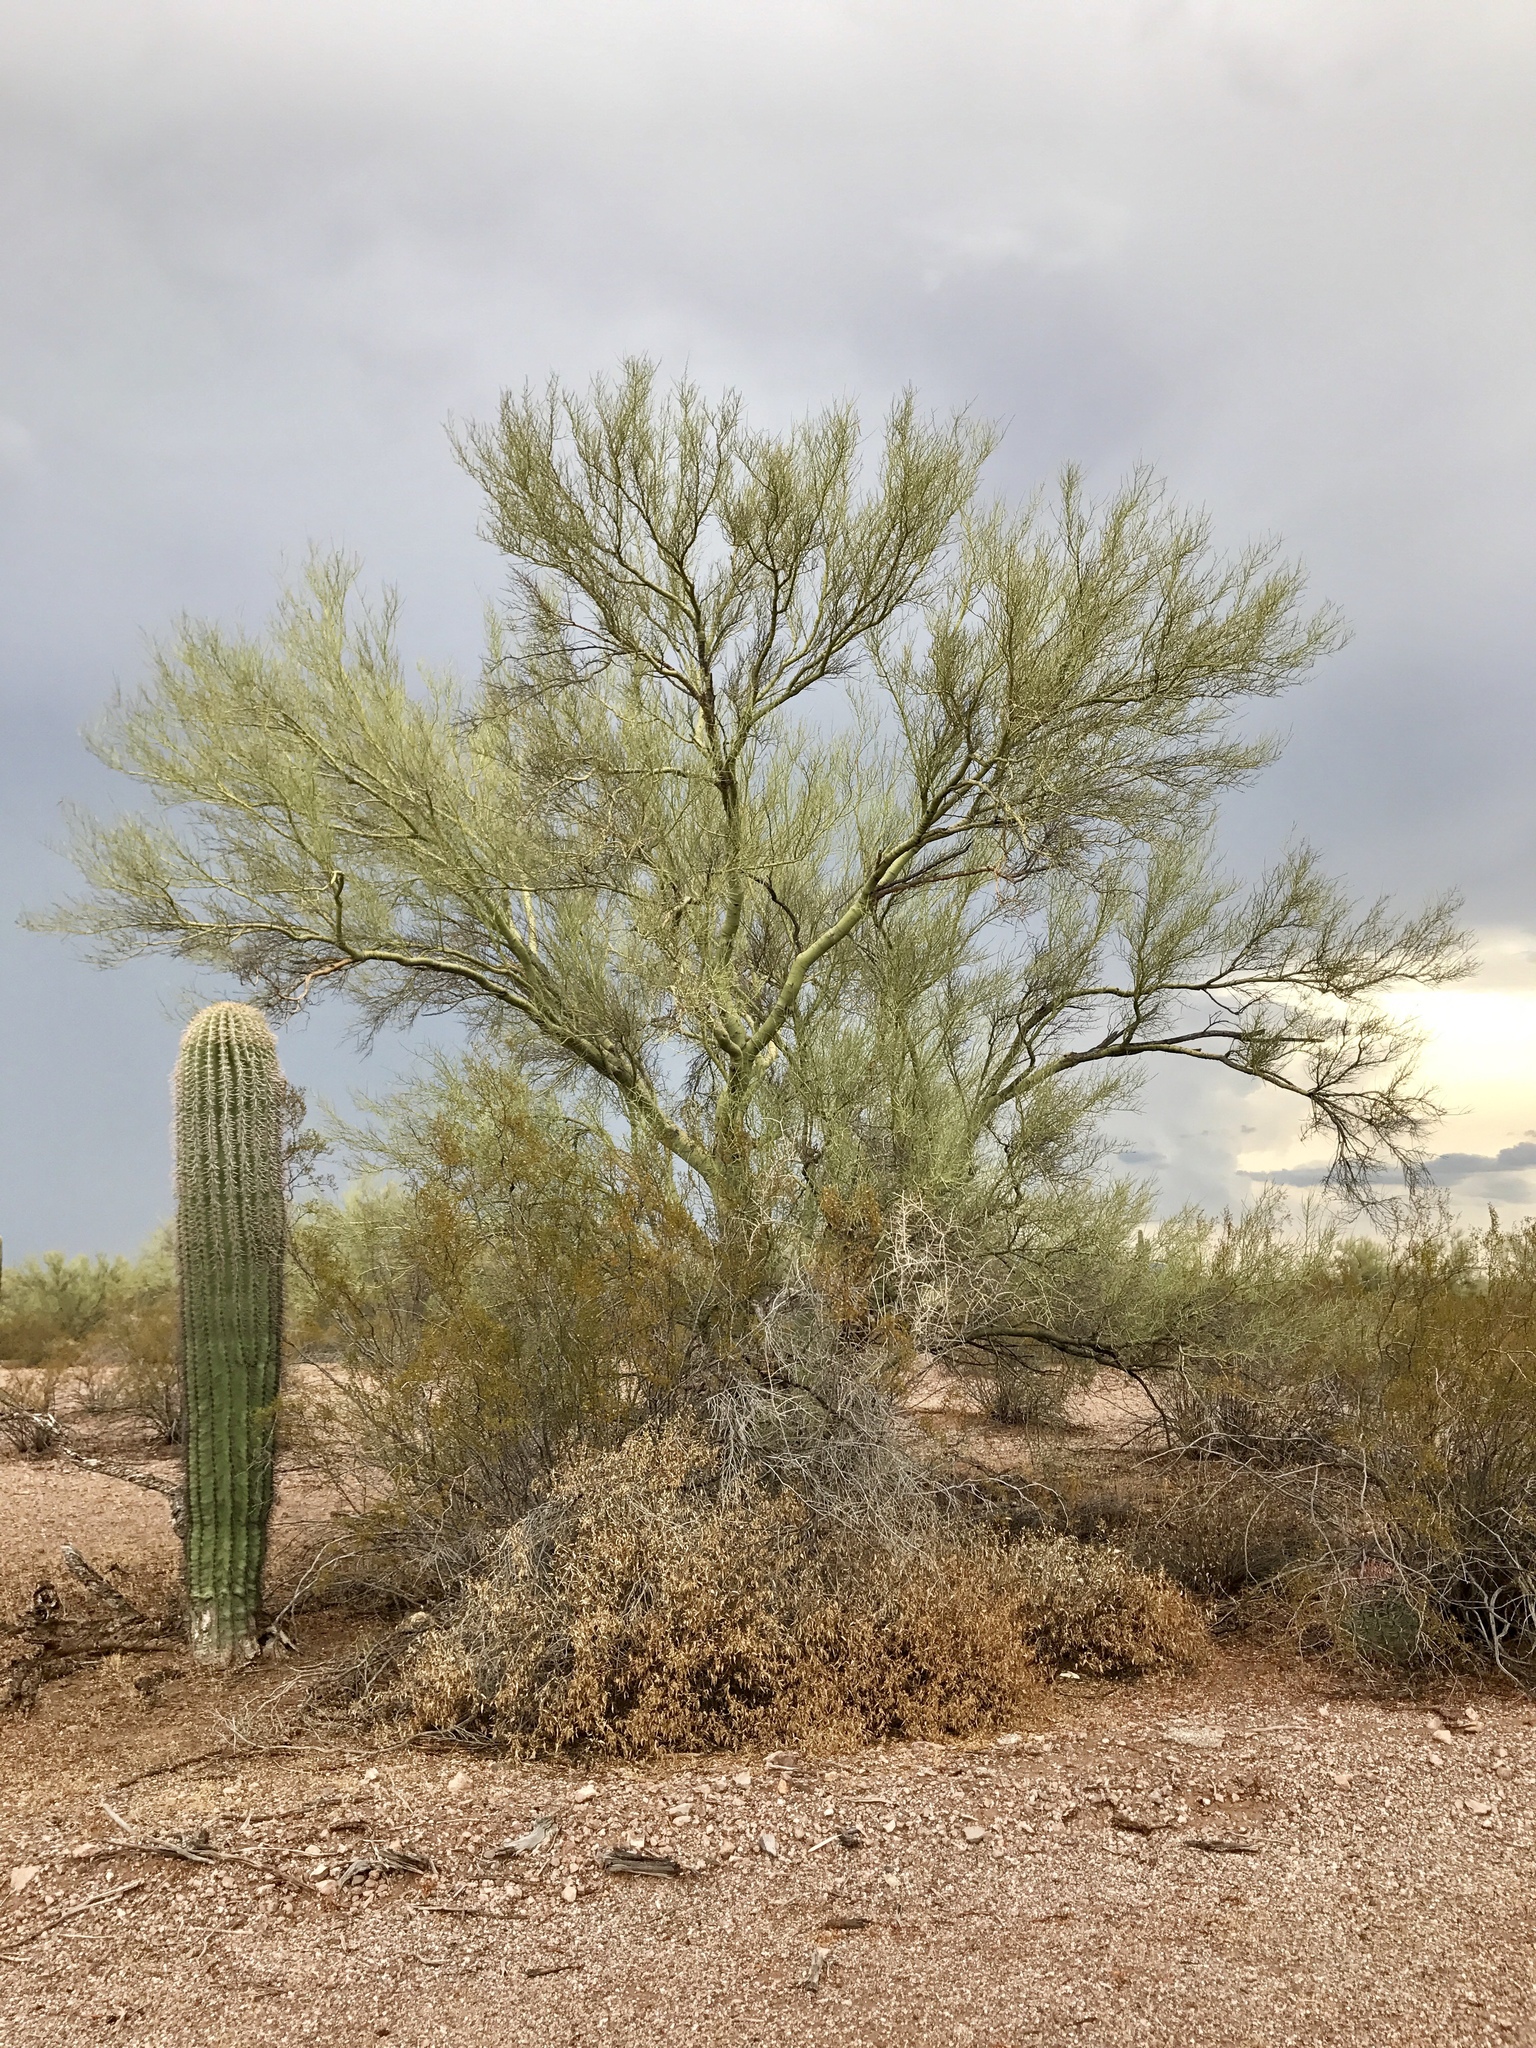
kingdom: Plantae
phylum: Tracheophyta
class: Magnoliopsida
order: Fabales
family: Fabaceae
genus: Parkinsonia
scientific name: Parkinsonia florida
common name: Blue paloverde
